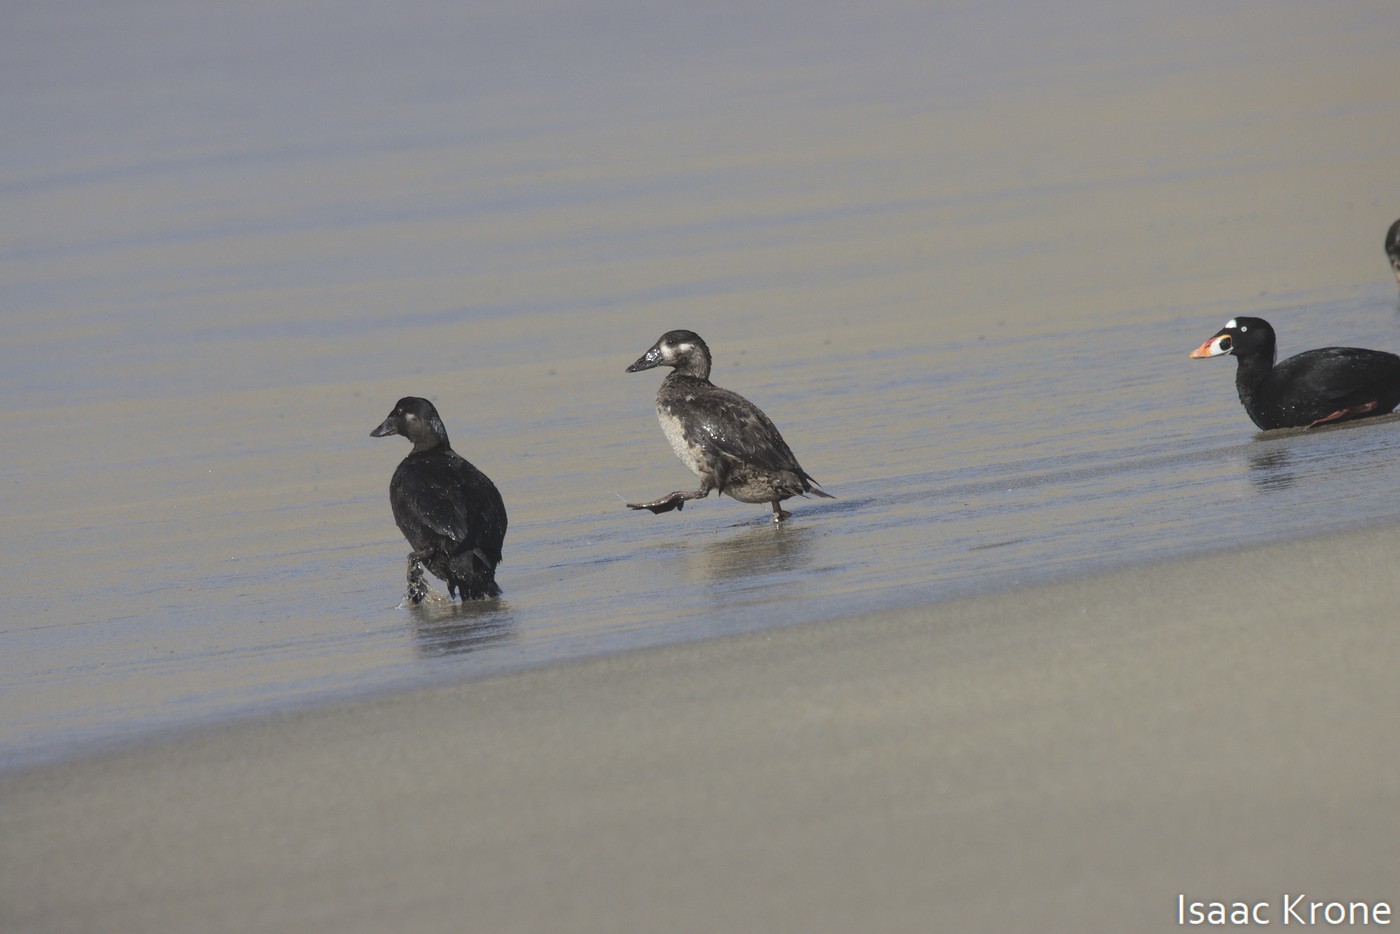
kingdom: Animalia
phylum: Chordata
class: Aves
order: Anseriformes
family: Anatidae
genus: Melanitta
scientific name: Melanitta perspicillata
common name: Surf scoter
